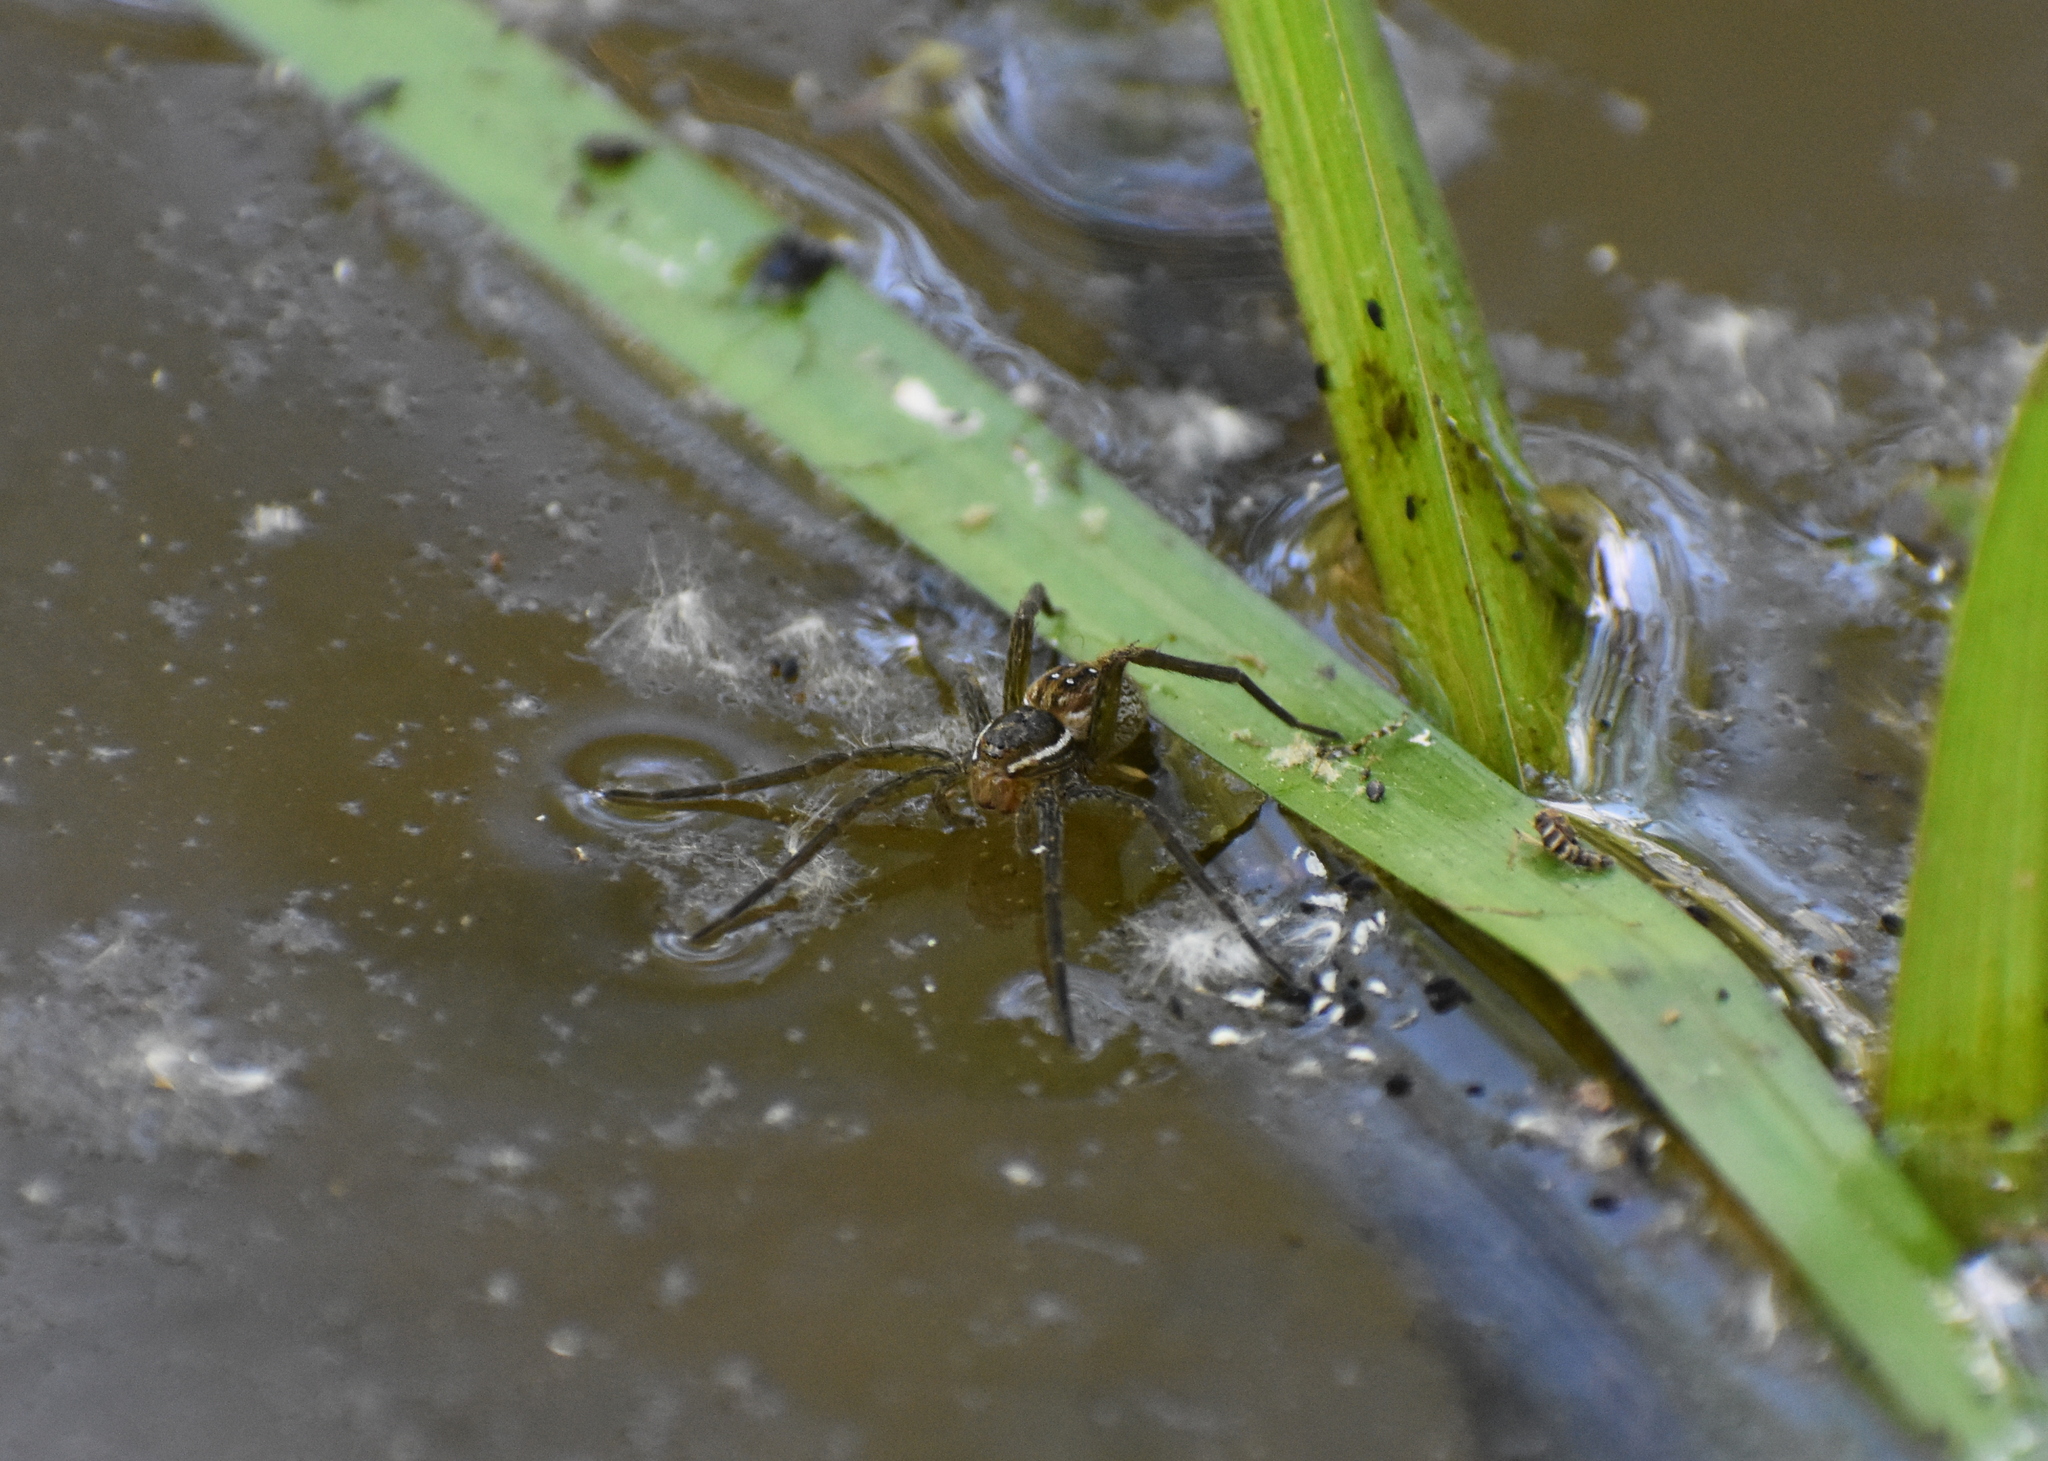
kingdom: Animalia
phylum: Arthropoda
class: Arachnida
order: Araneae
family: Pisauridae
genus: Dolomedes
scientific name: Dolomedes triton
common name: Six-spotted fishing spider
